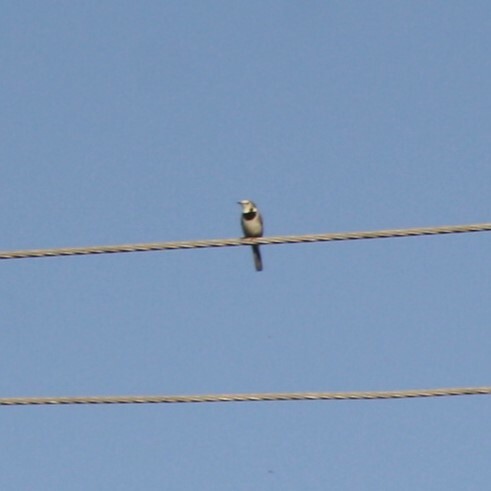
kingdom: Animalia
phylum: Chordata
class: Aves
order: Passeriformes
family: Motacillidae
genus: Motacilla
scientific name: Motacilla alba
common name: White wagtail
